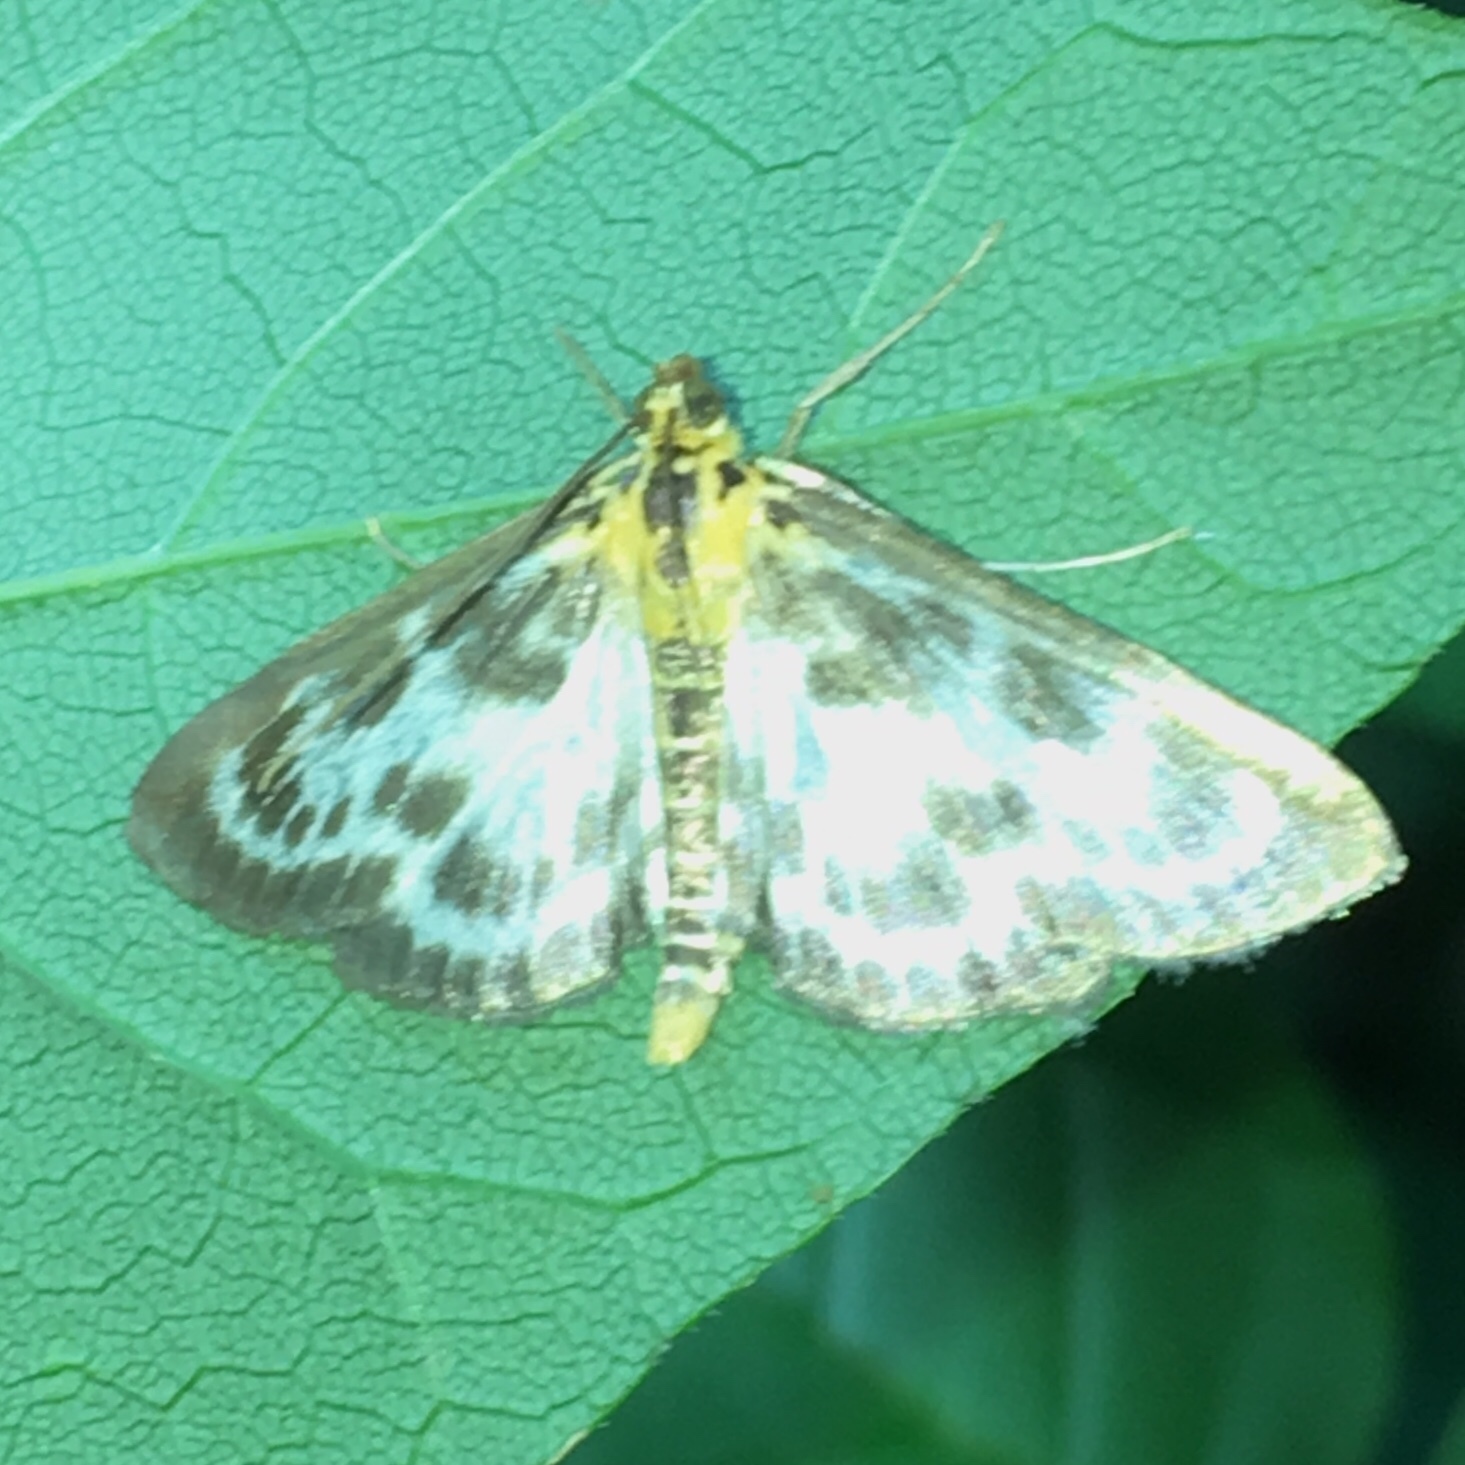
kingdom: Animalia
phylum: Arthropoda
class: Insecta
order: Lepidoptera
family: Crambidae
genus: Anania
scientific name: Anania hortulata
